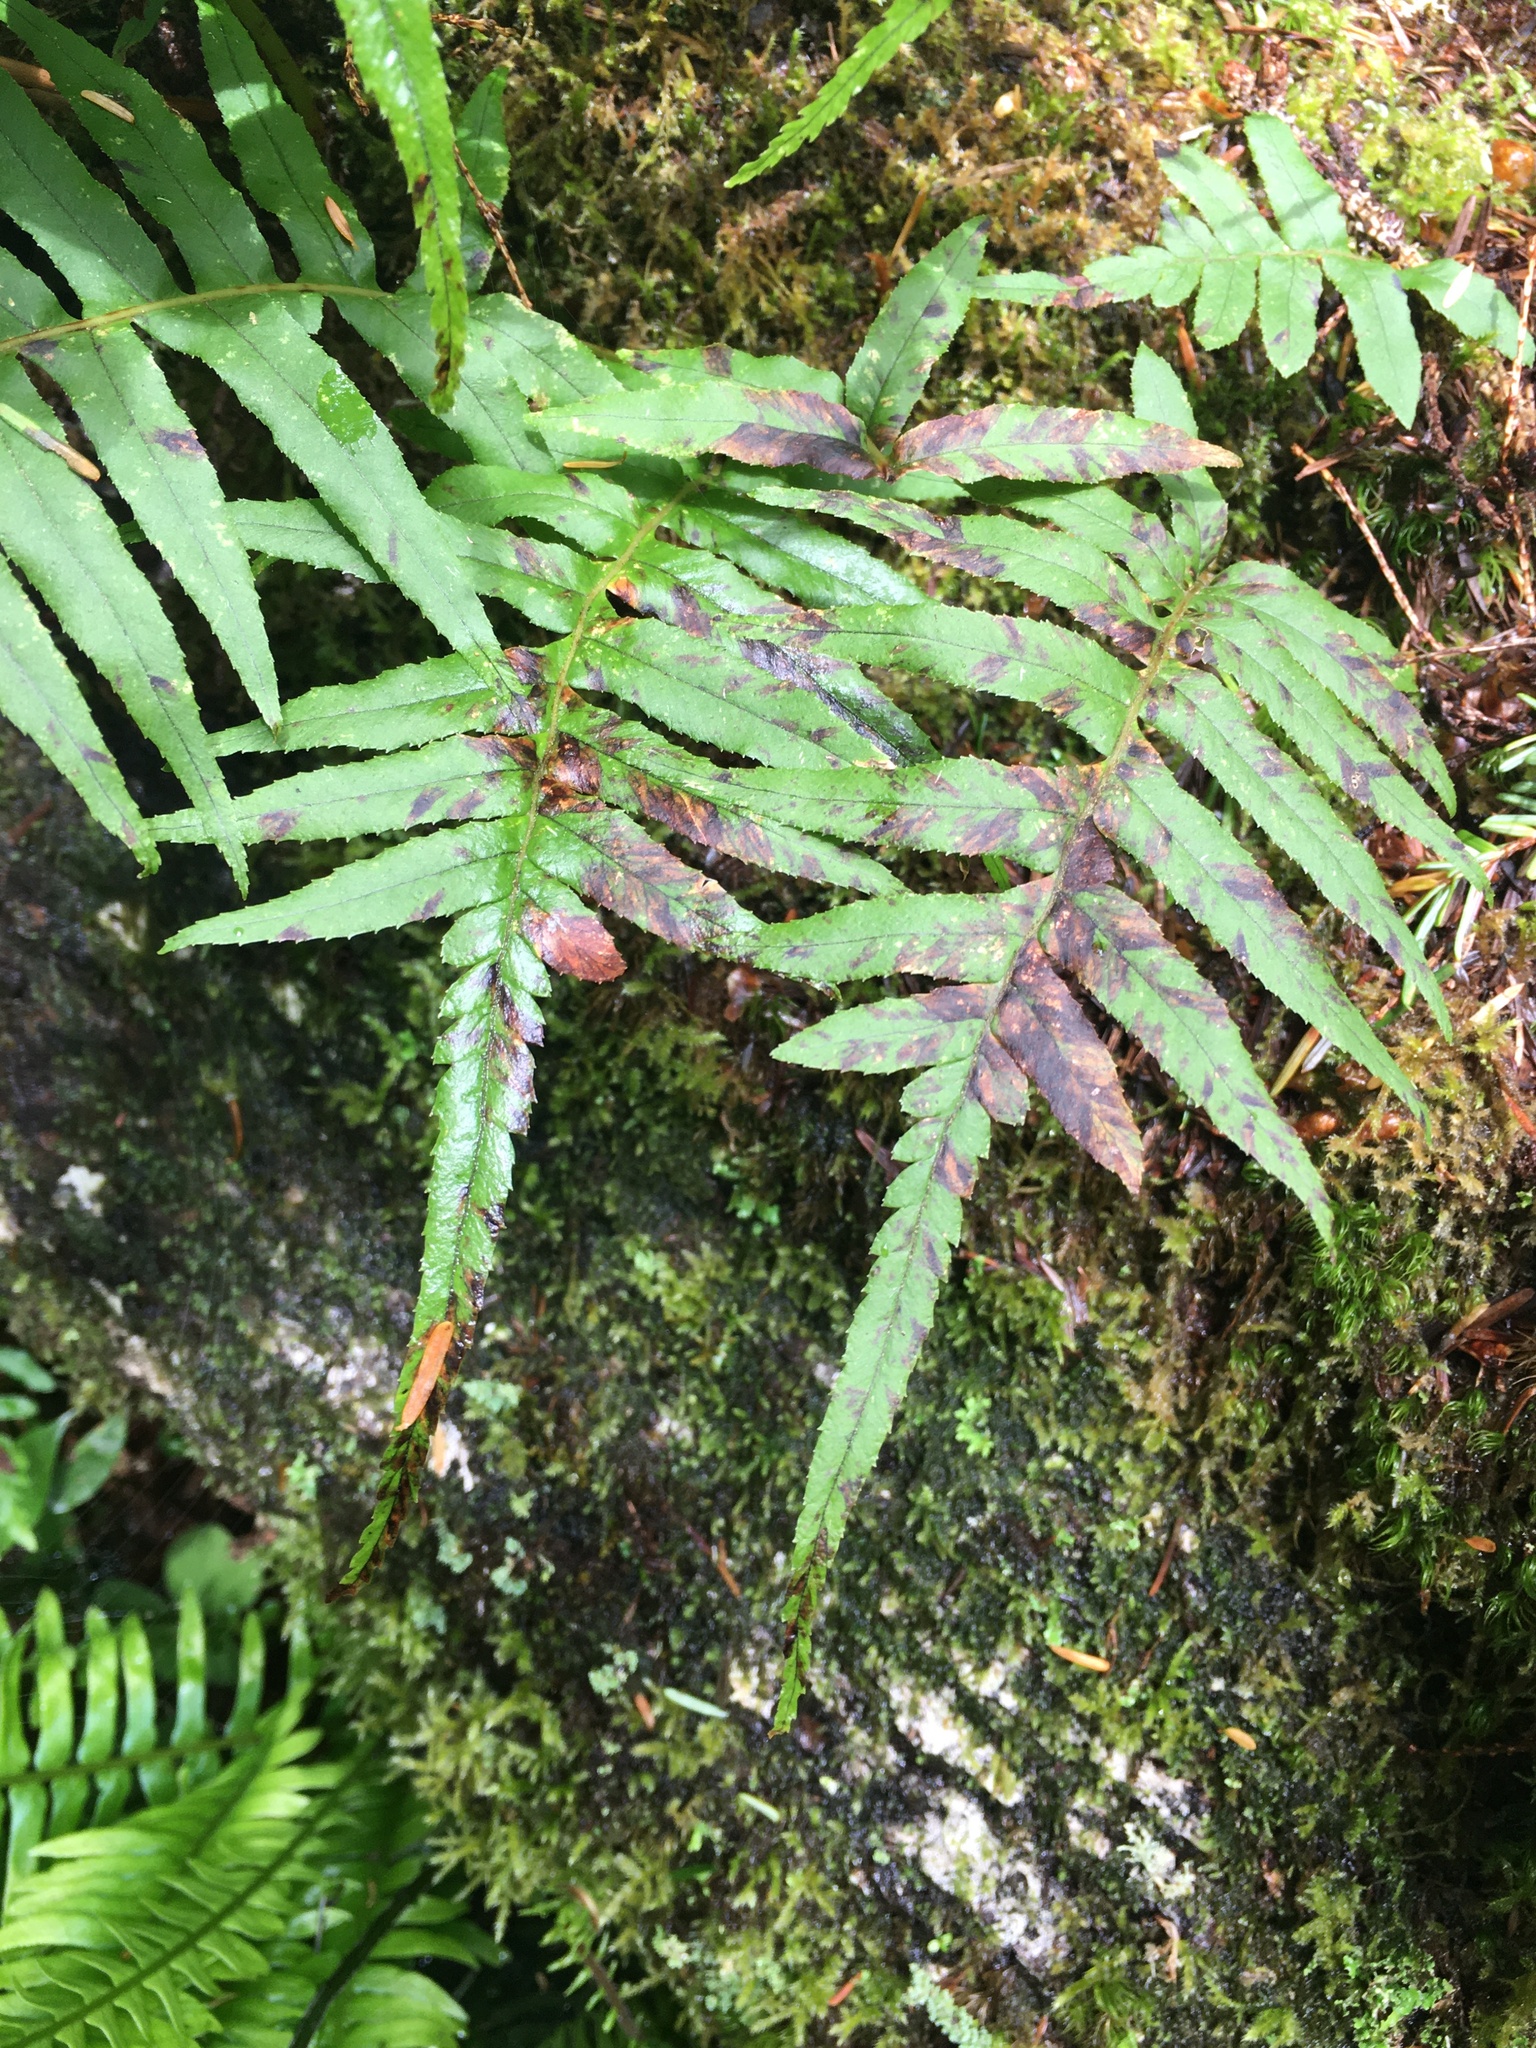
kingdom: Plantae
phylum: Tracheophyta
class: Polypodiopsida
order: Polypodiales
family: Polypodiaceae
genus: Polypodium
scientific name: Polypodium glycyrrhiza
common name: Licorice fern
